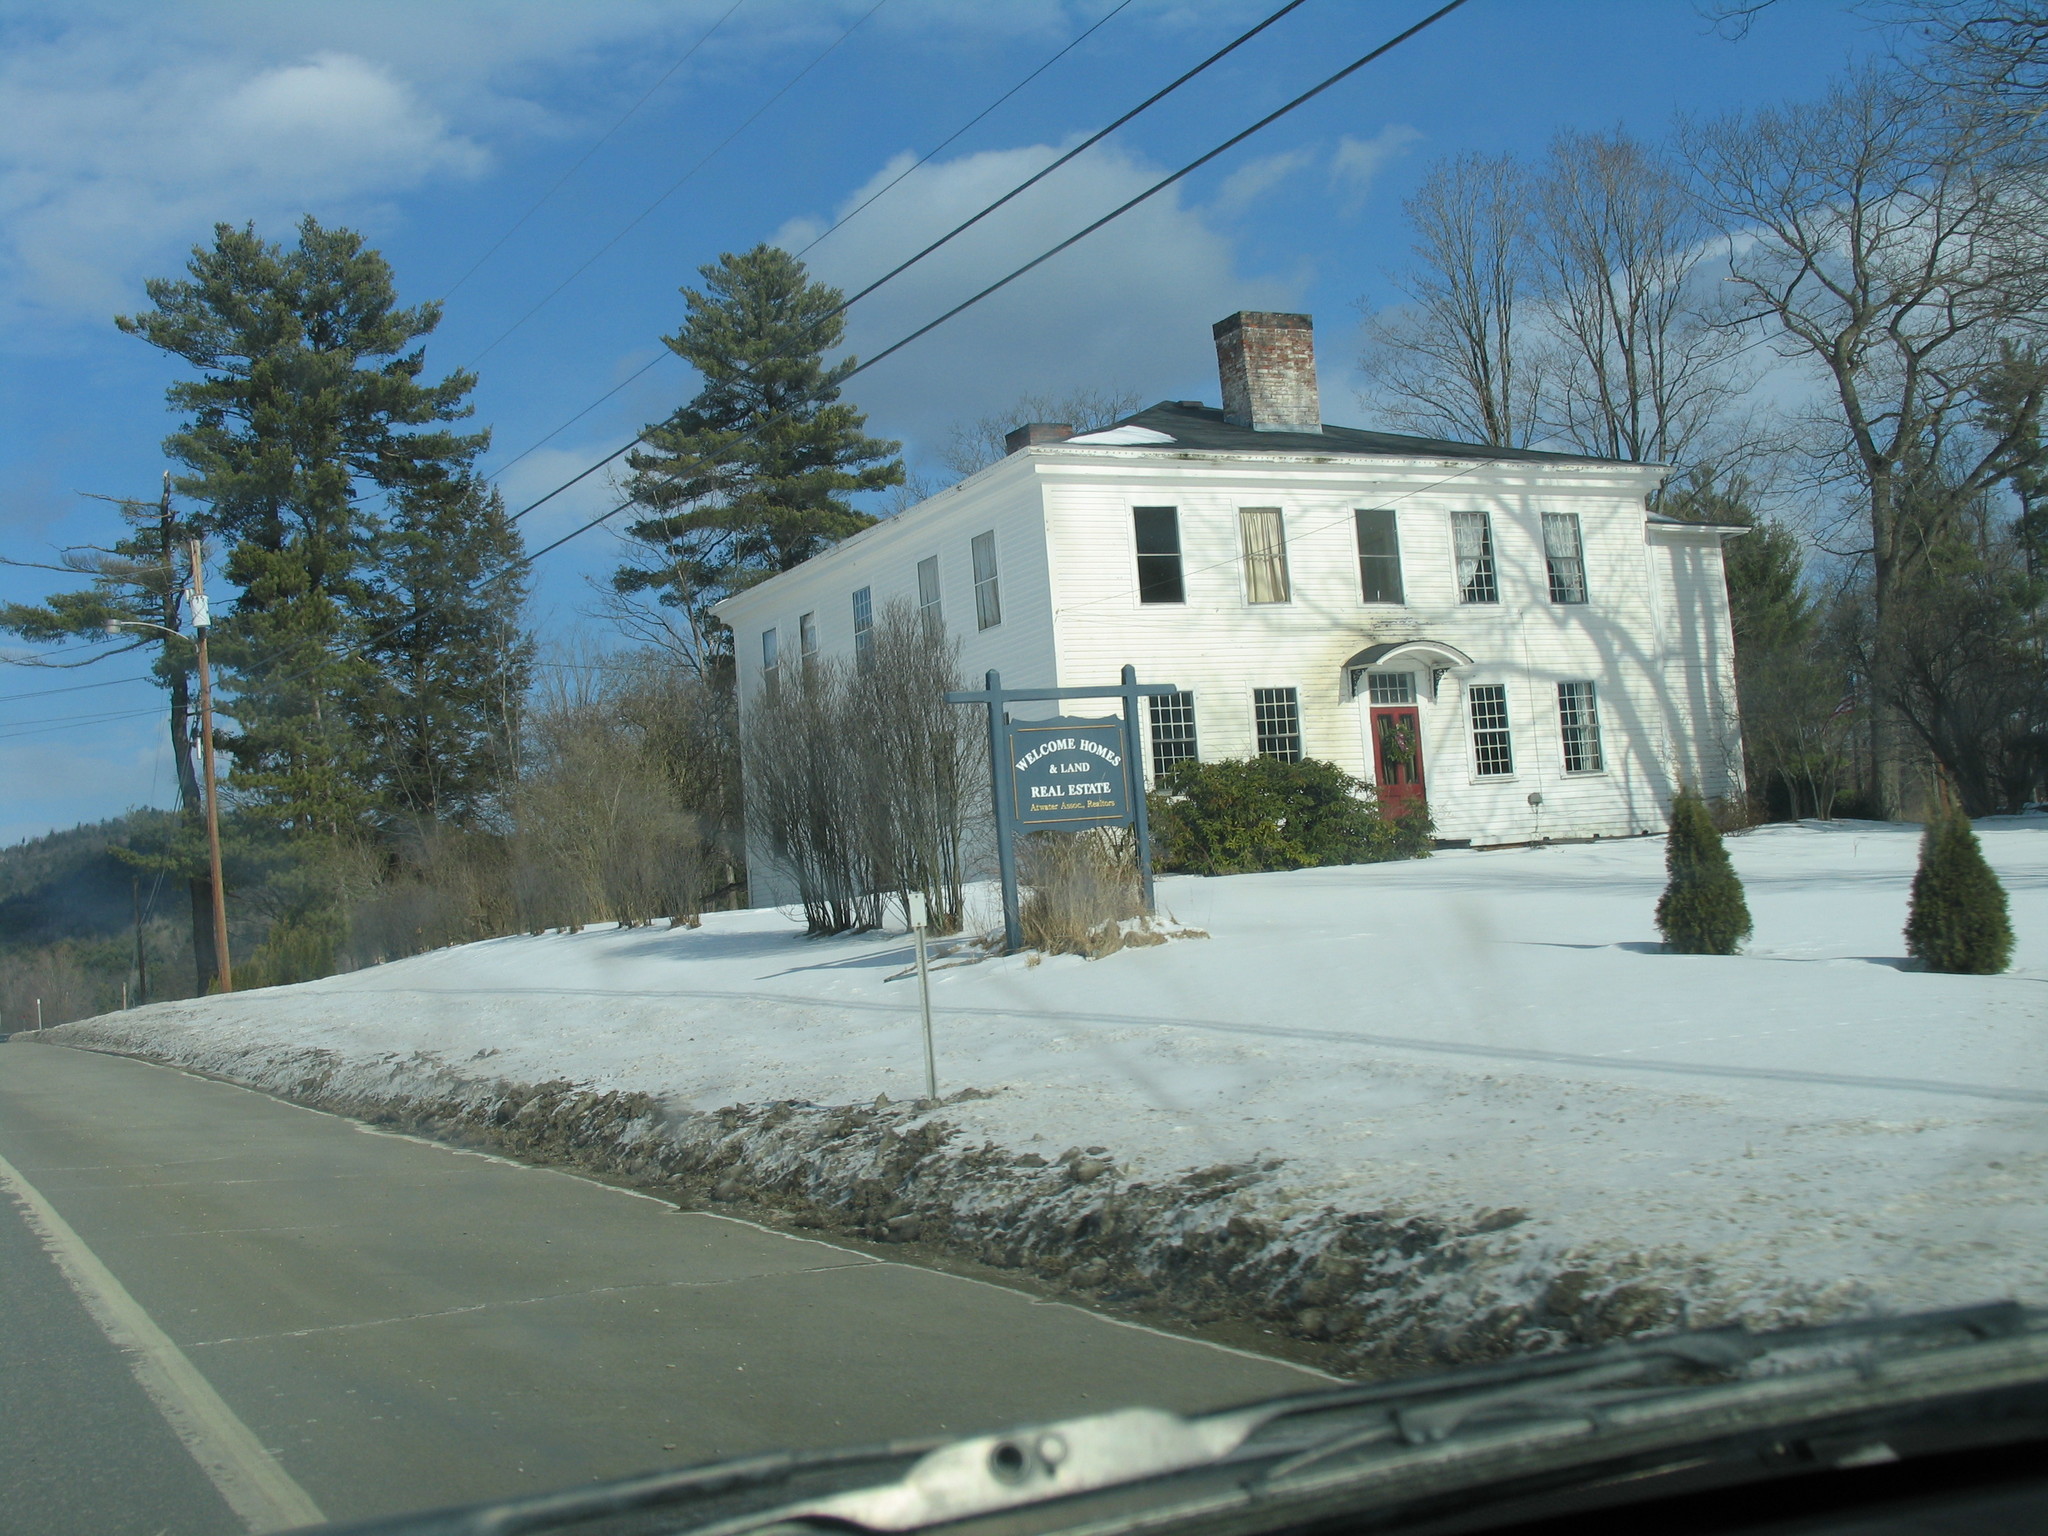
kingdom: Plantae
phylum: Tracheophyta
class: Pinopsida
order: Pinales
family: Pinaceae
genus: Pinus
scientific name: Pinus strobus
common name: Weymouth pine
